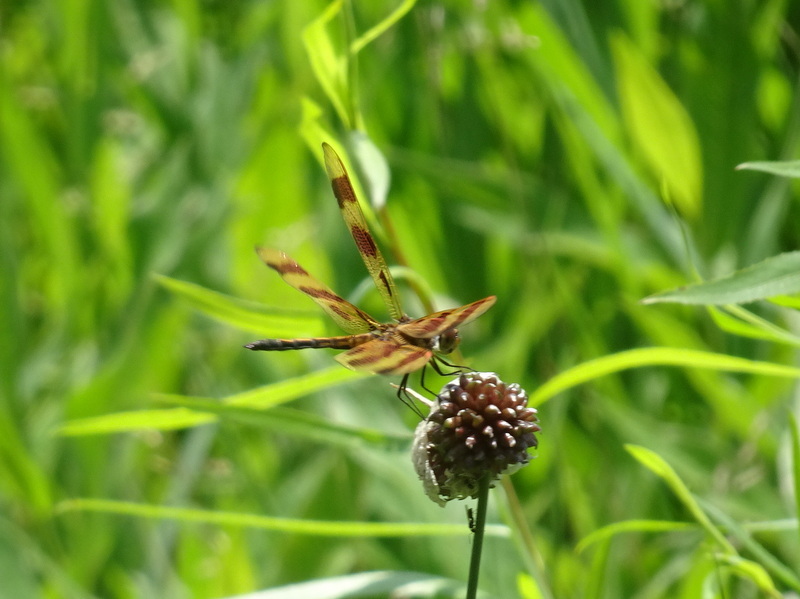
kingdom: Animalia
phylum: Arthropoda
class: Insecta
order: Odonata
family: Libellulidae
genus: Celithemis
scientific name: Celithemis eponina
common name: Halloween pennant
